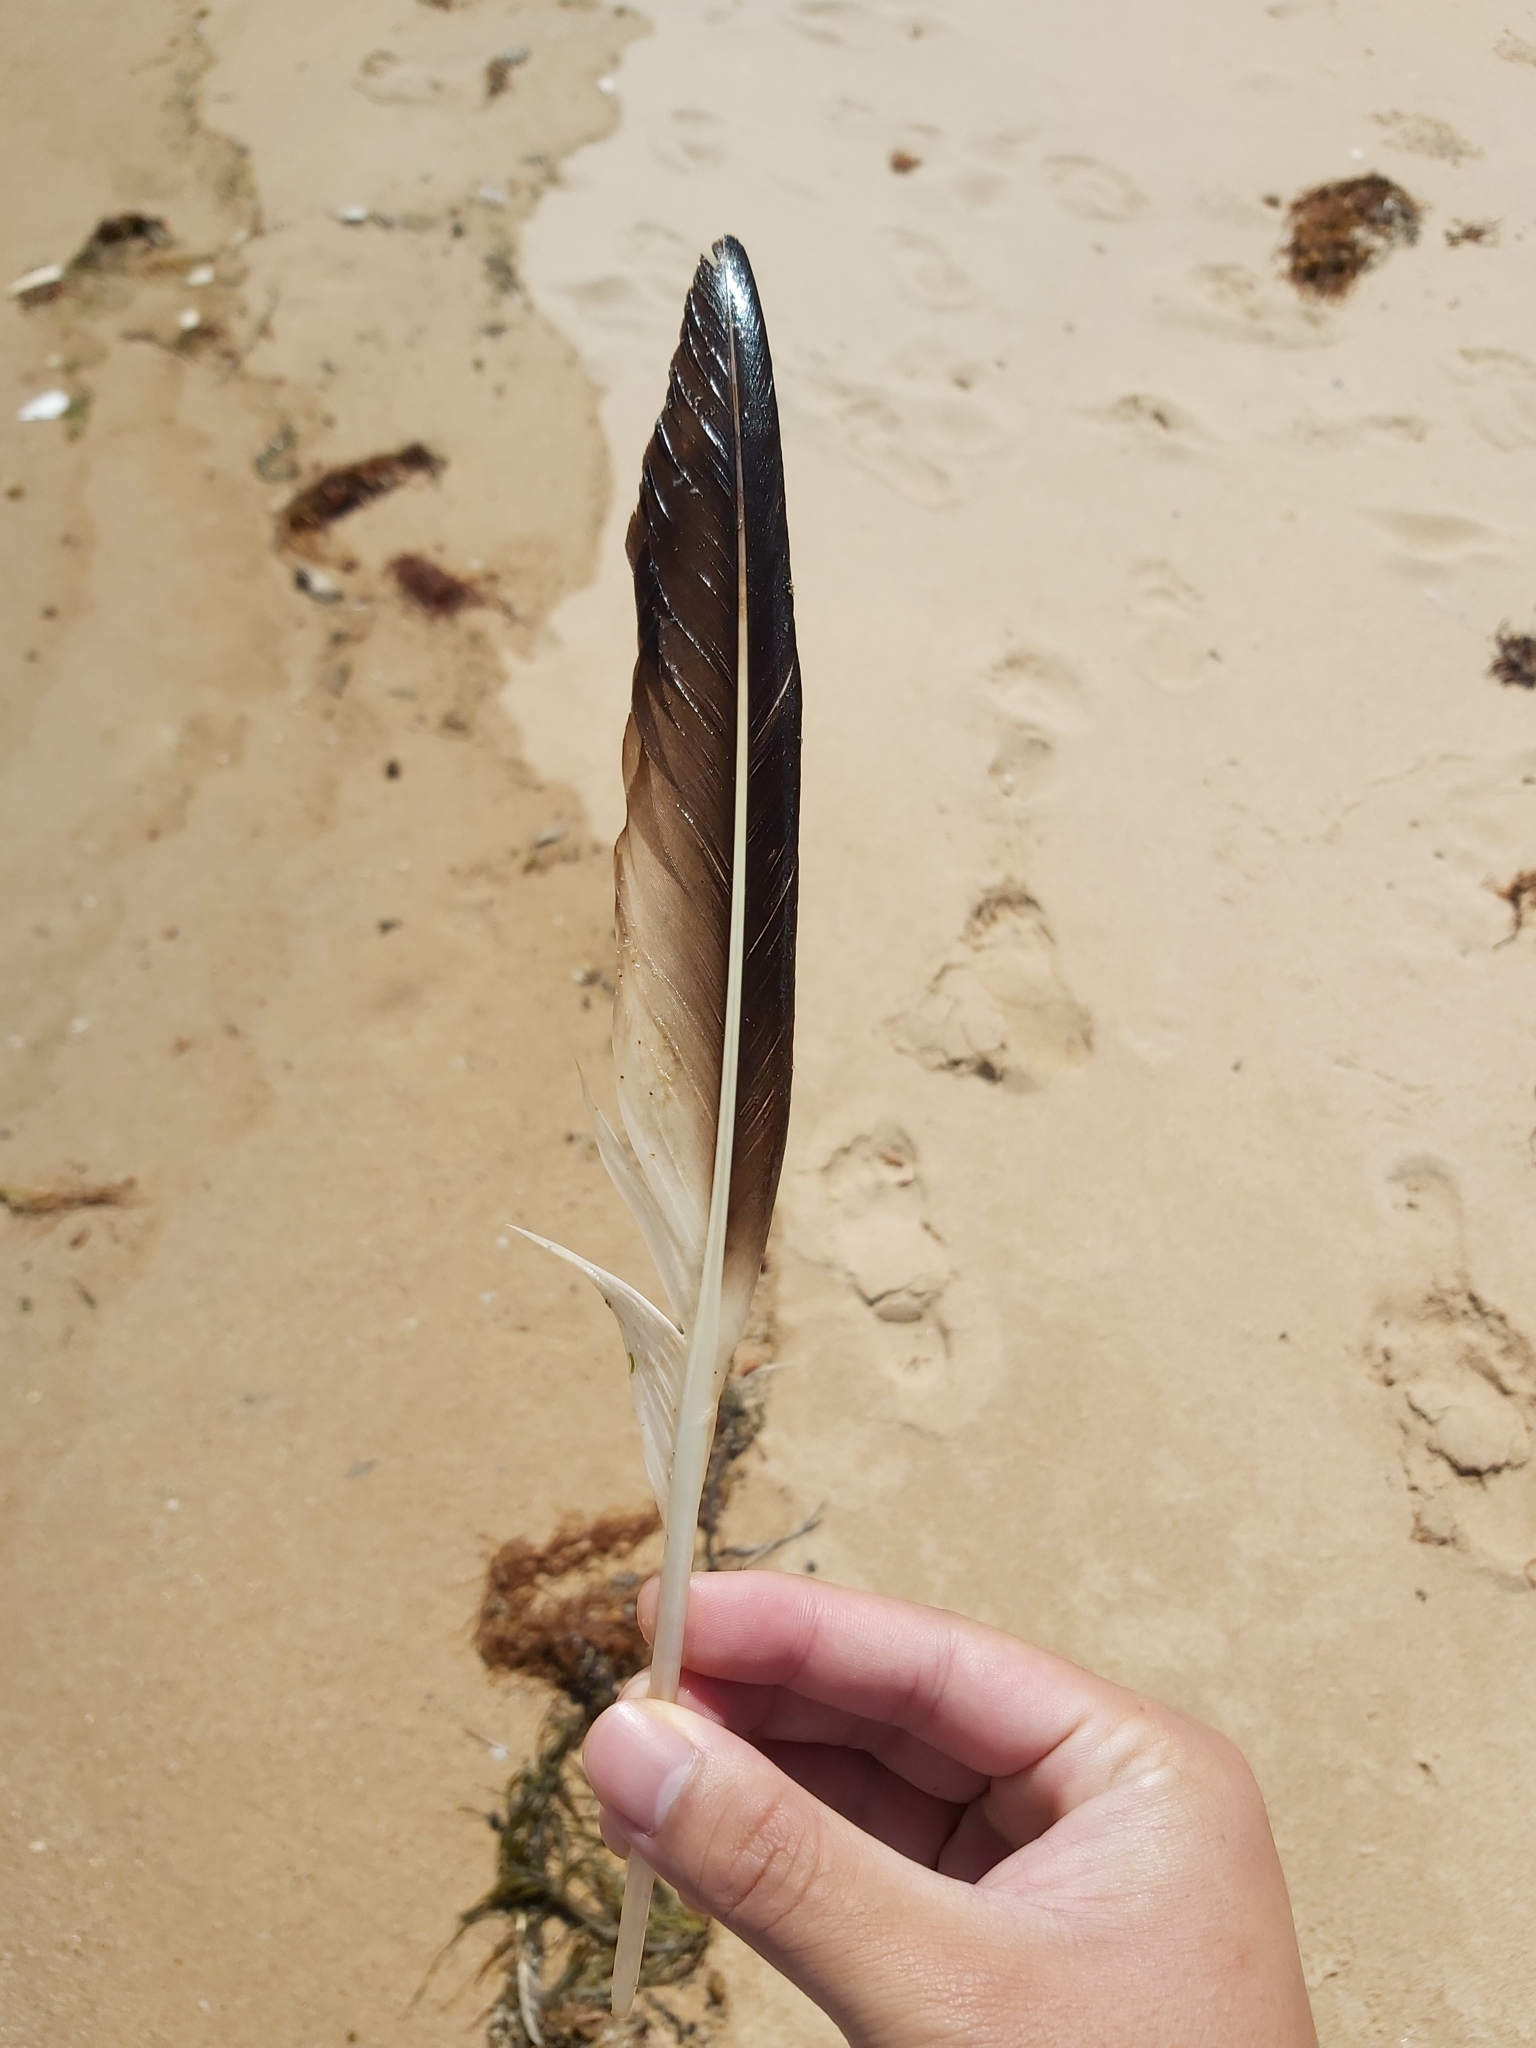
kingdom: Animalia
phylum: Chordata
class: Aves
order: Suliformes
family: Sulidae
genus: Morus
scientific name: Morus serrator
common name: Australasian gannet
